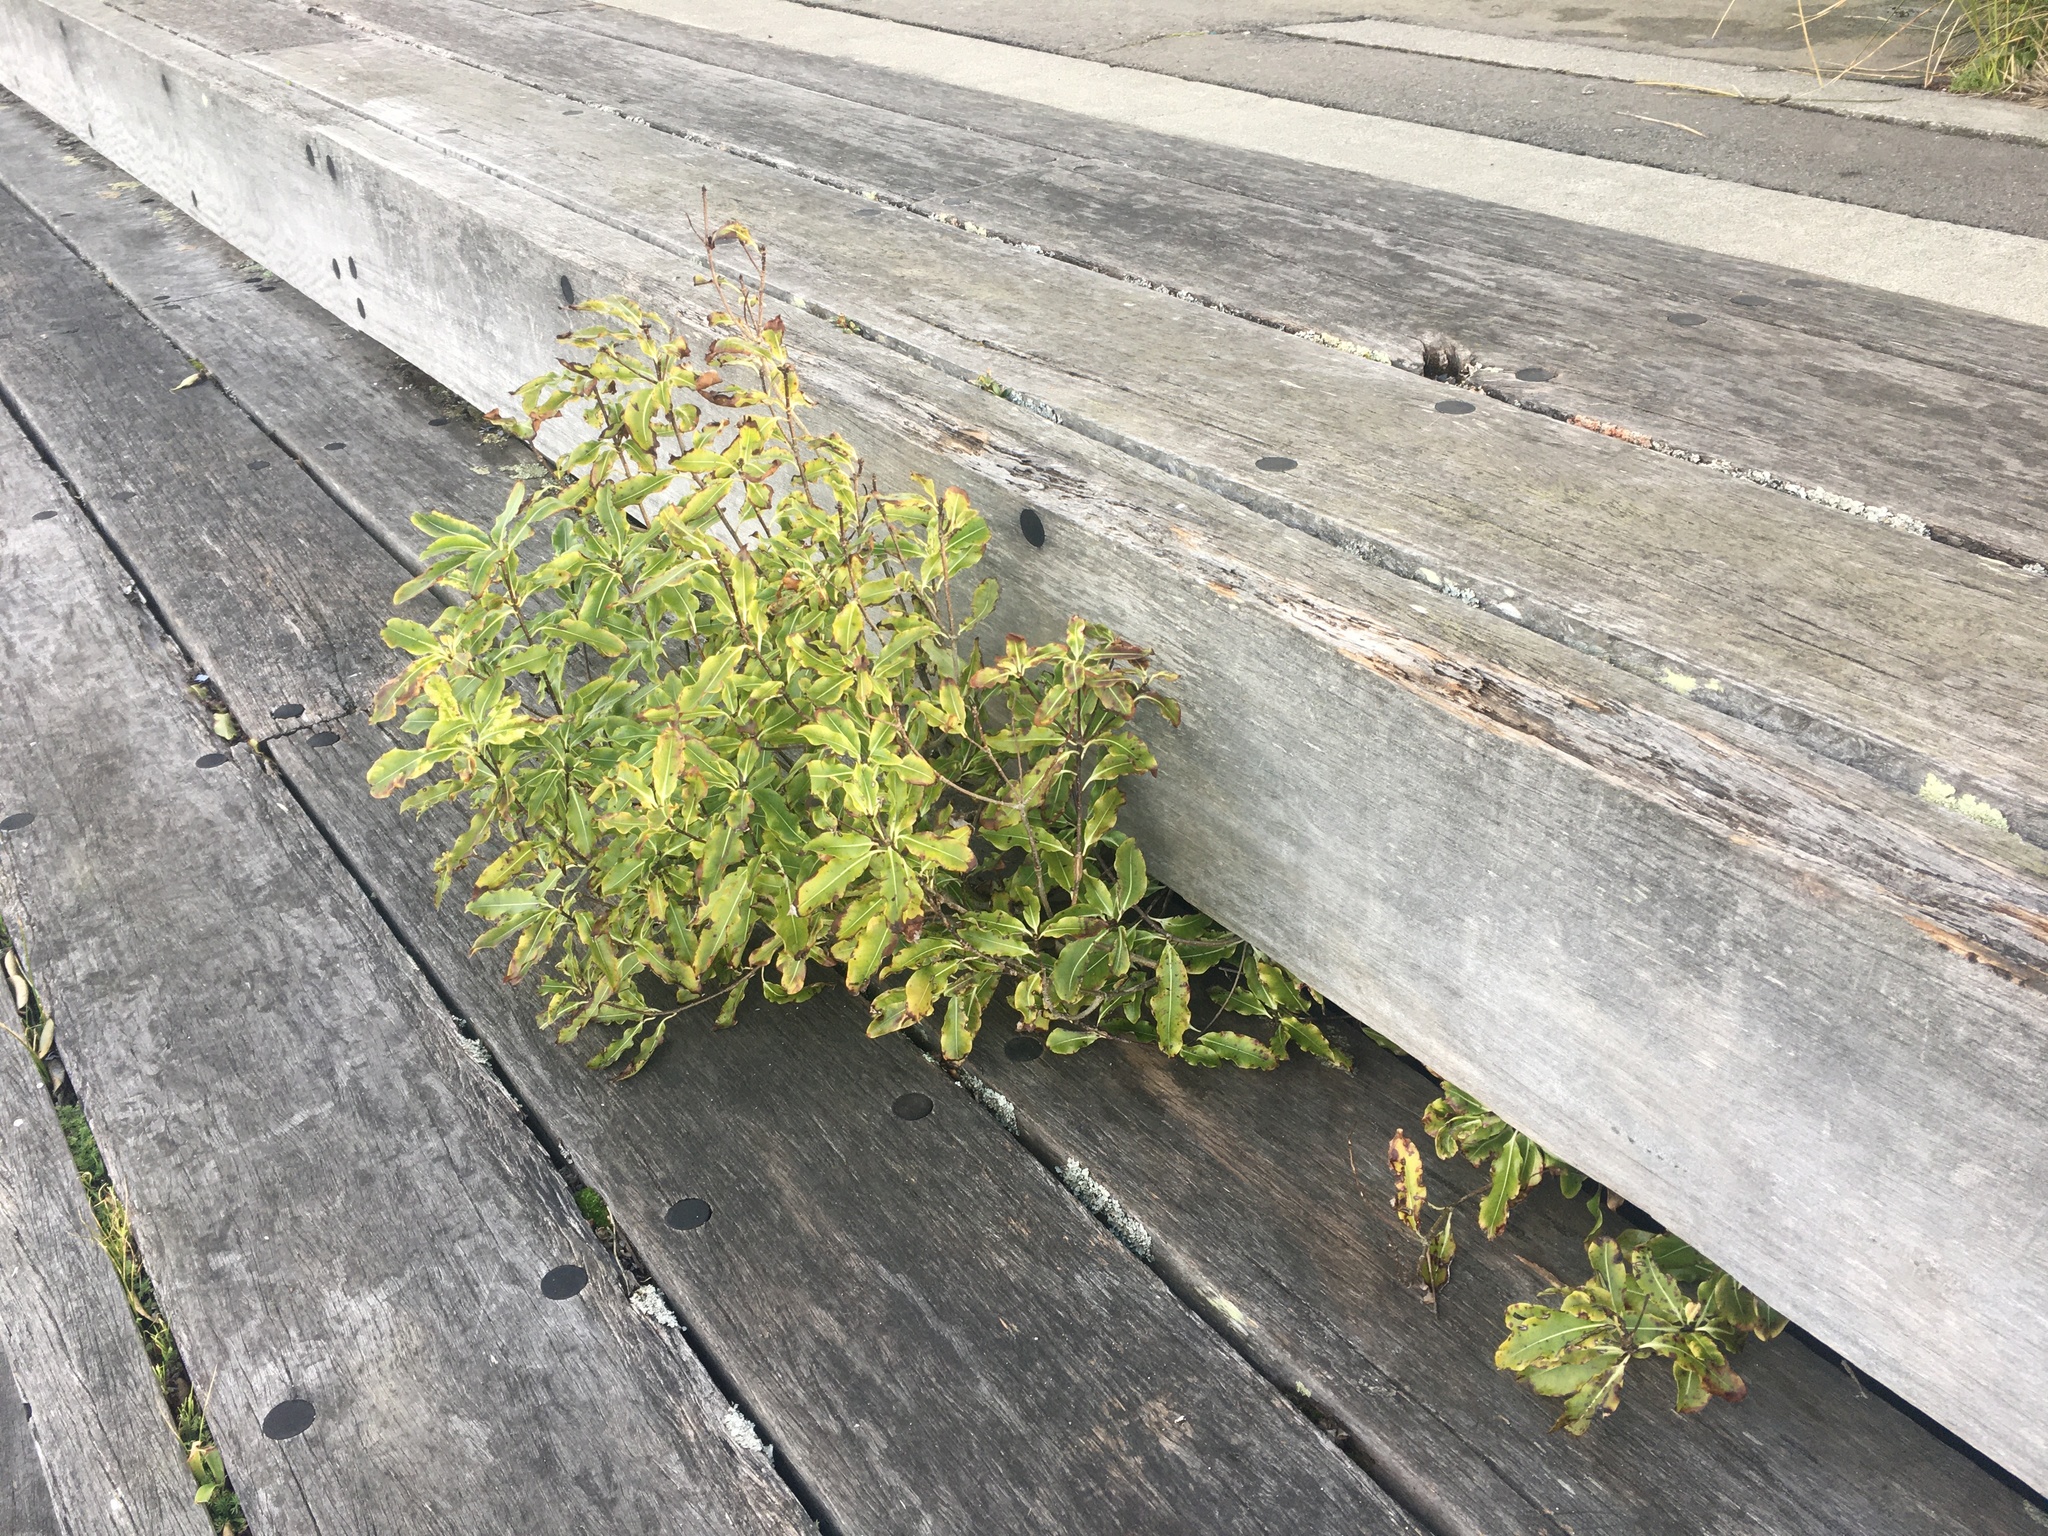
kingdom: Plantae
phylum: Tracheophyta
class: Magnoliopsida
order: Apiales
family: Pittosporaceae
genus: Pittosporum
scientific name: Pittosporum eugenioides
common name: Lemonwood
